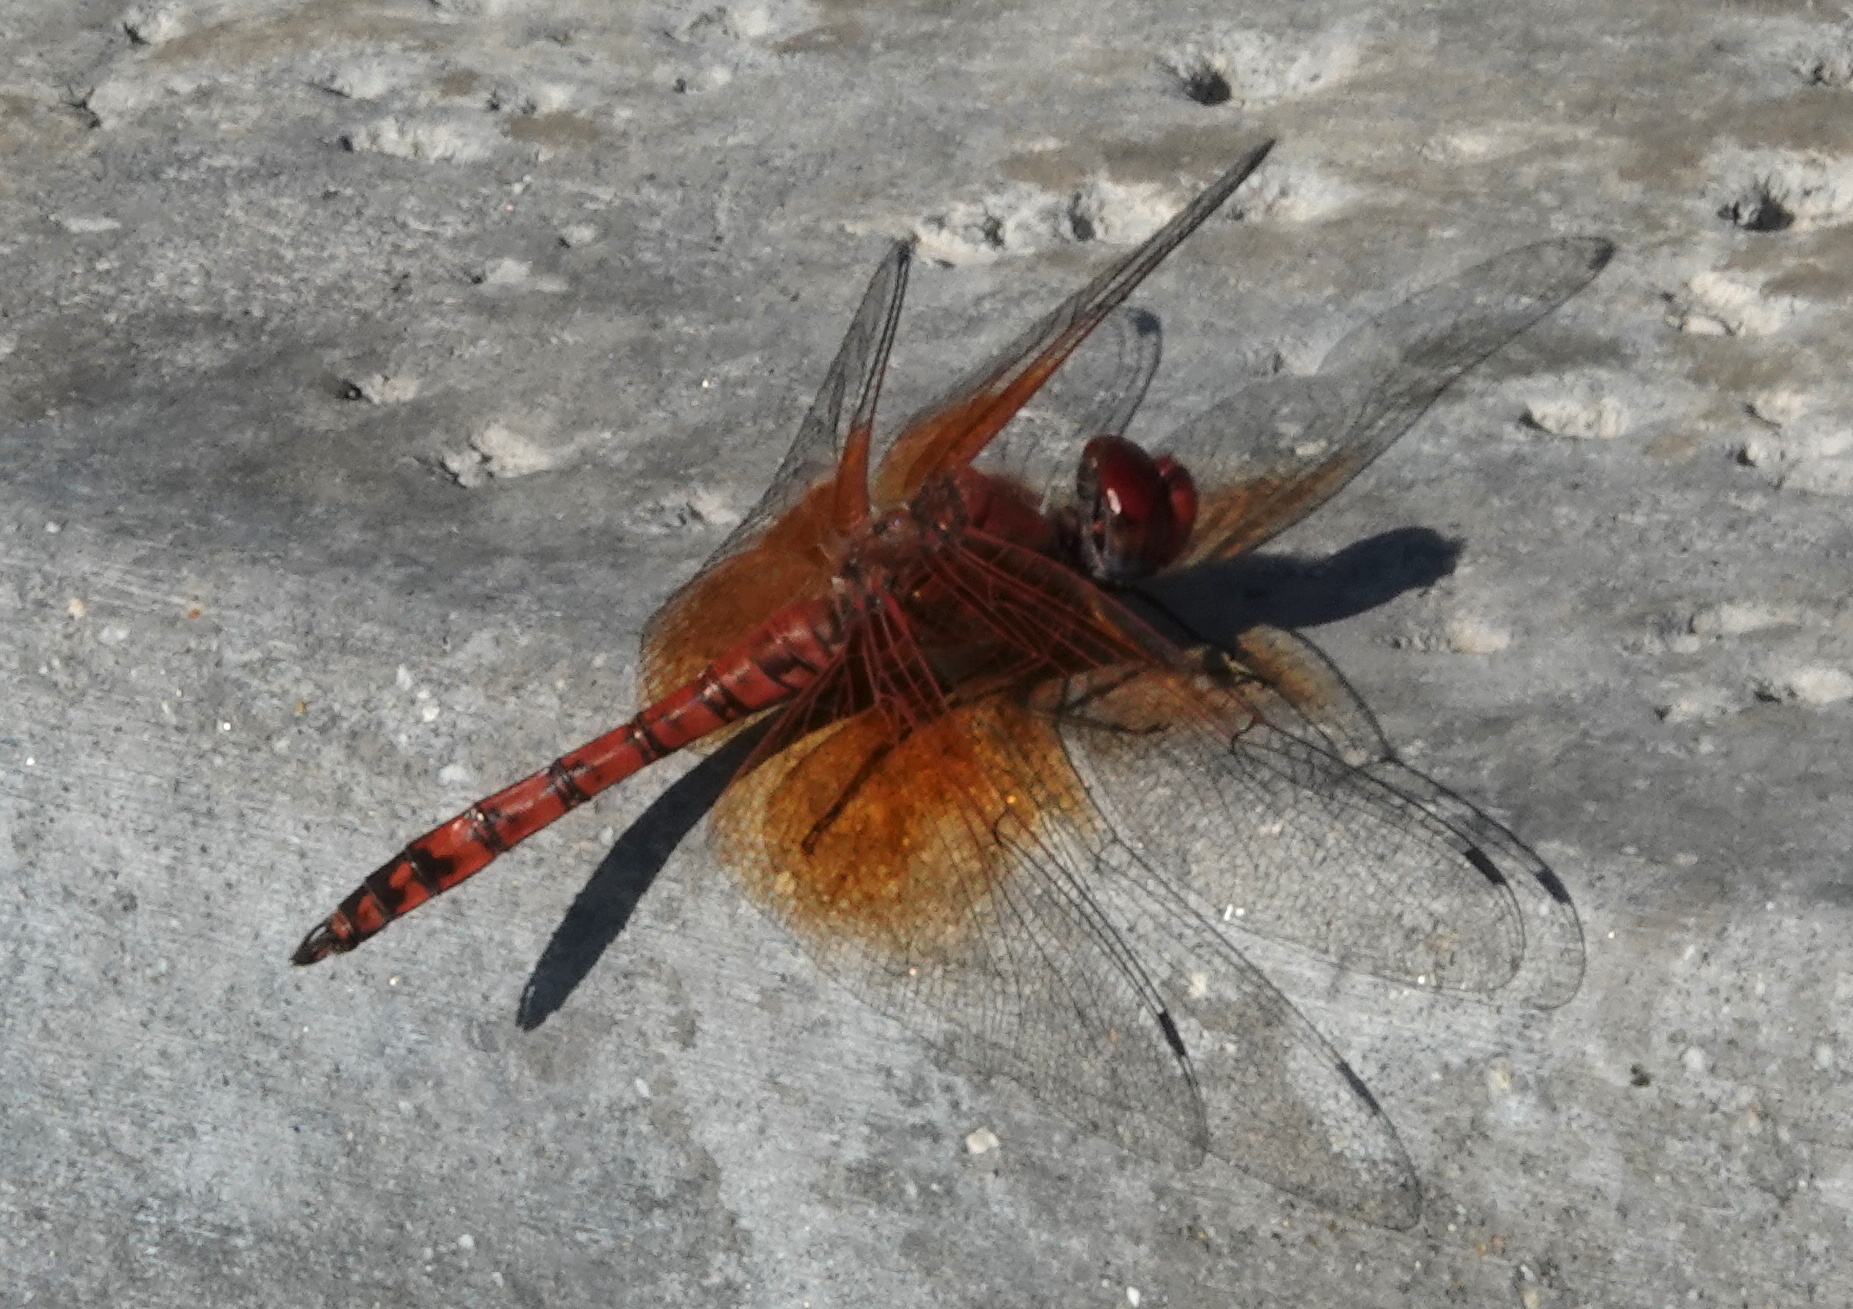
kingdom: Animalia
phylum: Arthropoda
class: Insecta
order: Odonata
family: Libellulidae
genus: Paltothemis
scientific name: Paltothemis lineatipes
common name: Red rock skimmer
